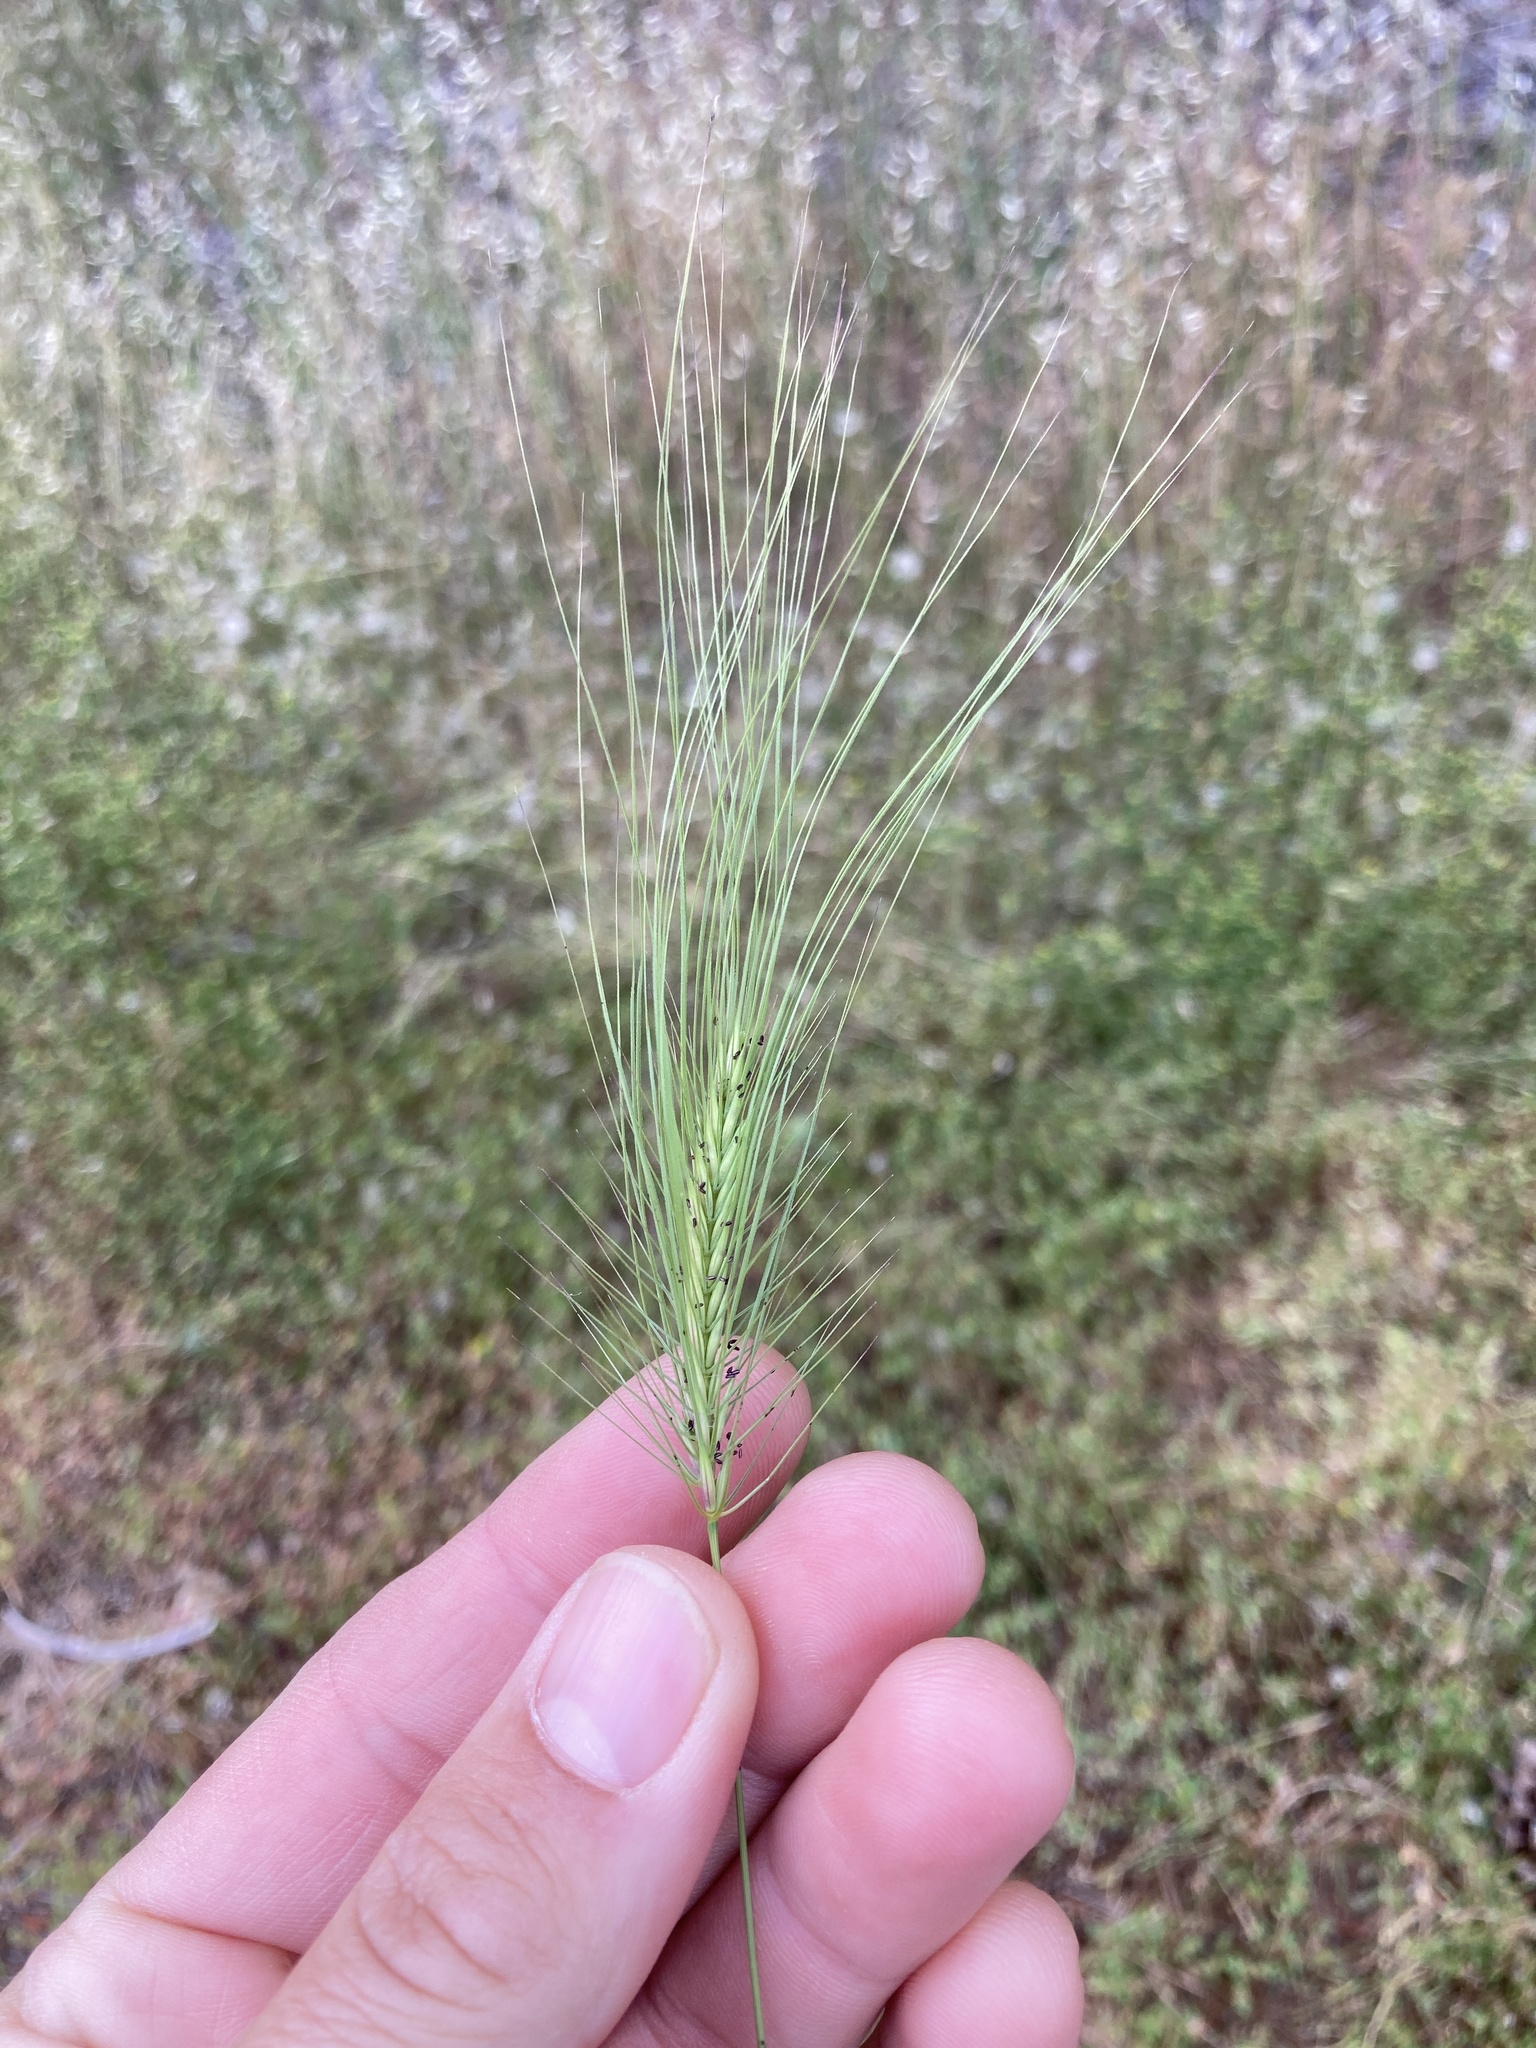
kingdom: Plantae
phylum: Tracheophyta
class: Liliopsida
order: Poales
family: Poaceae
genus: Taeniatherum
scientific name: Taeniatherum caput-medusae
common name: Medusahead
